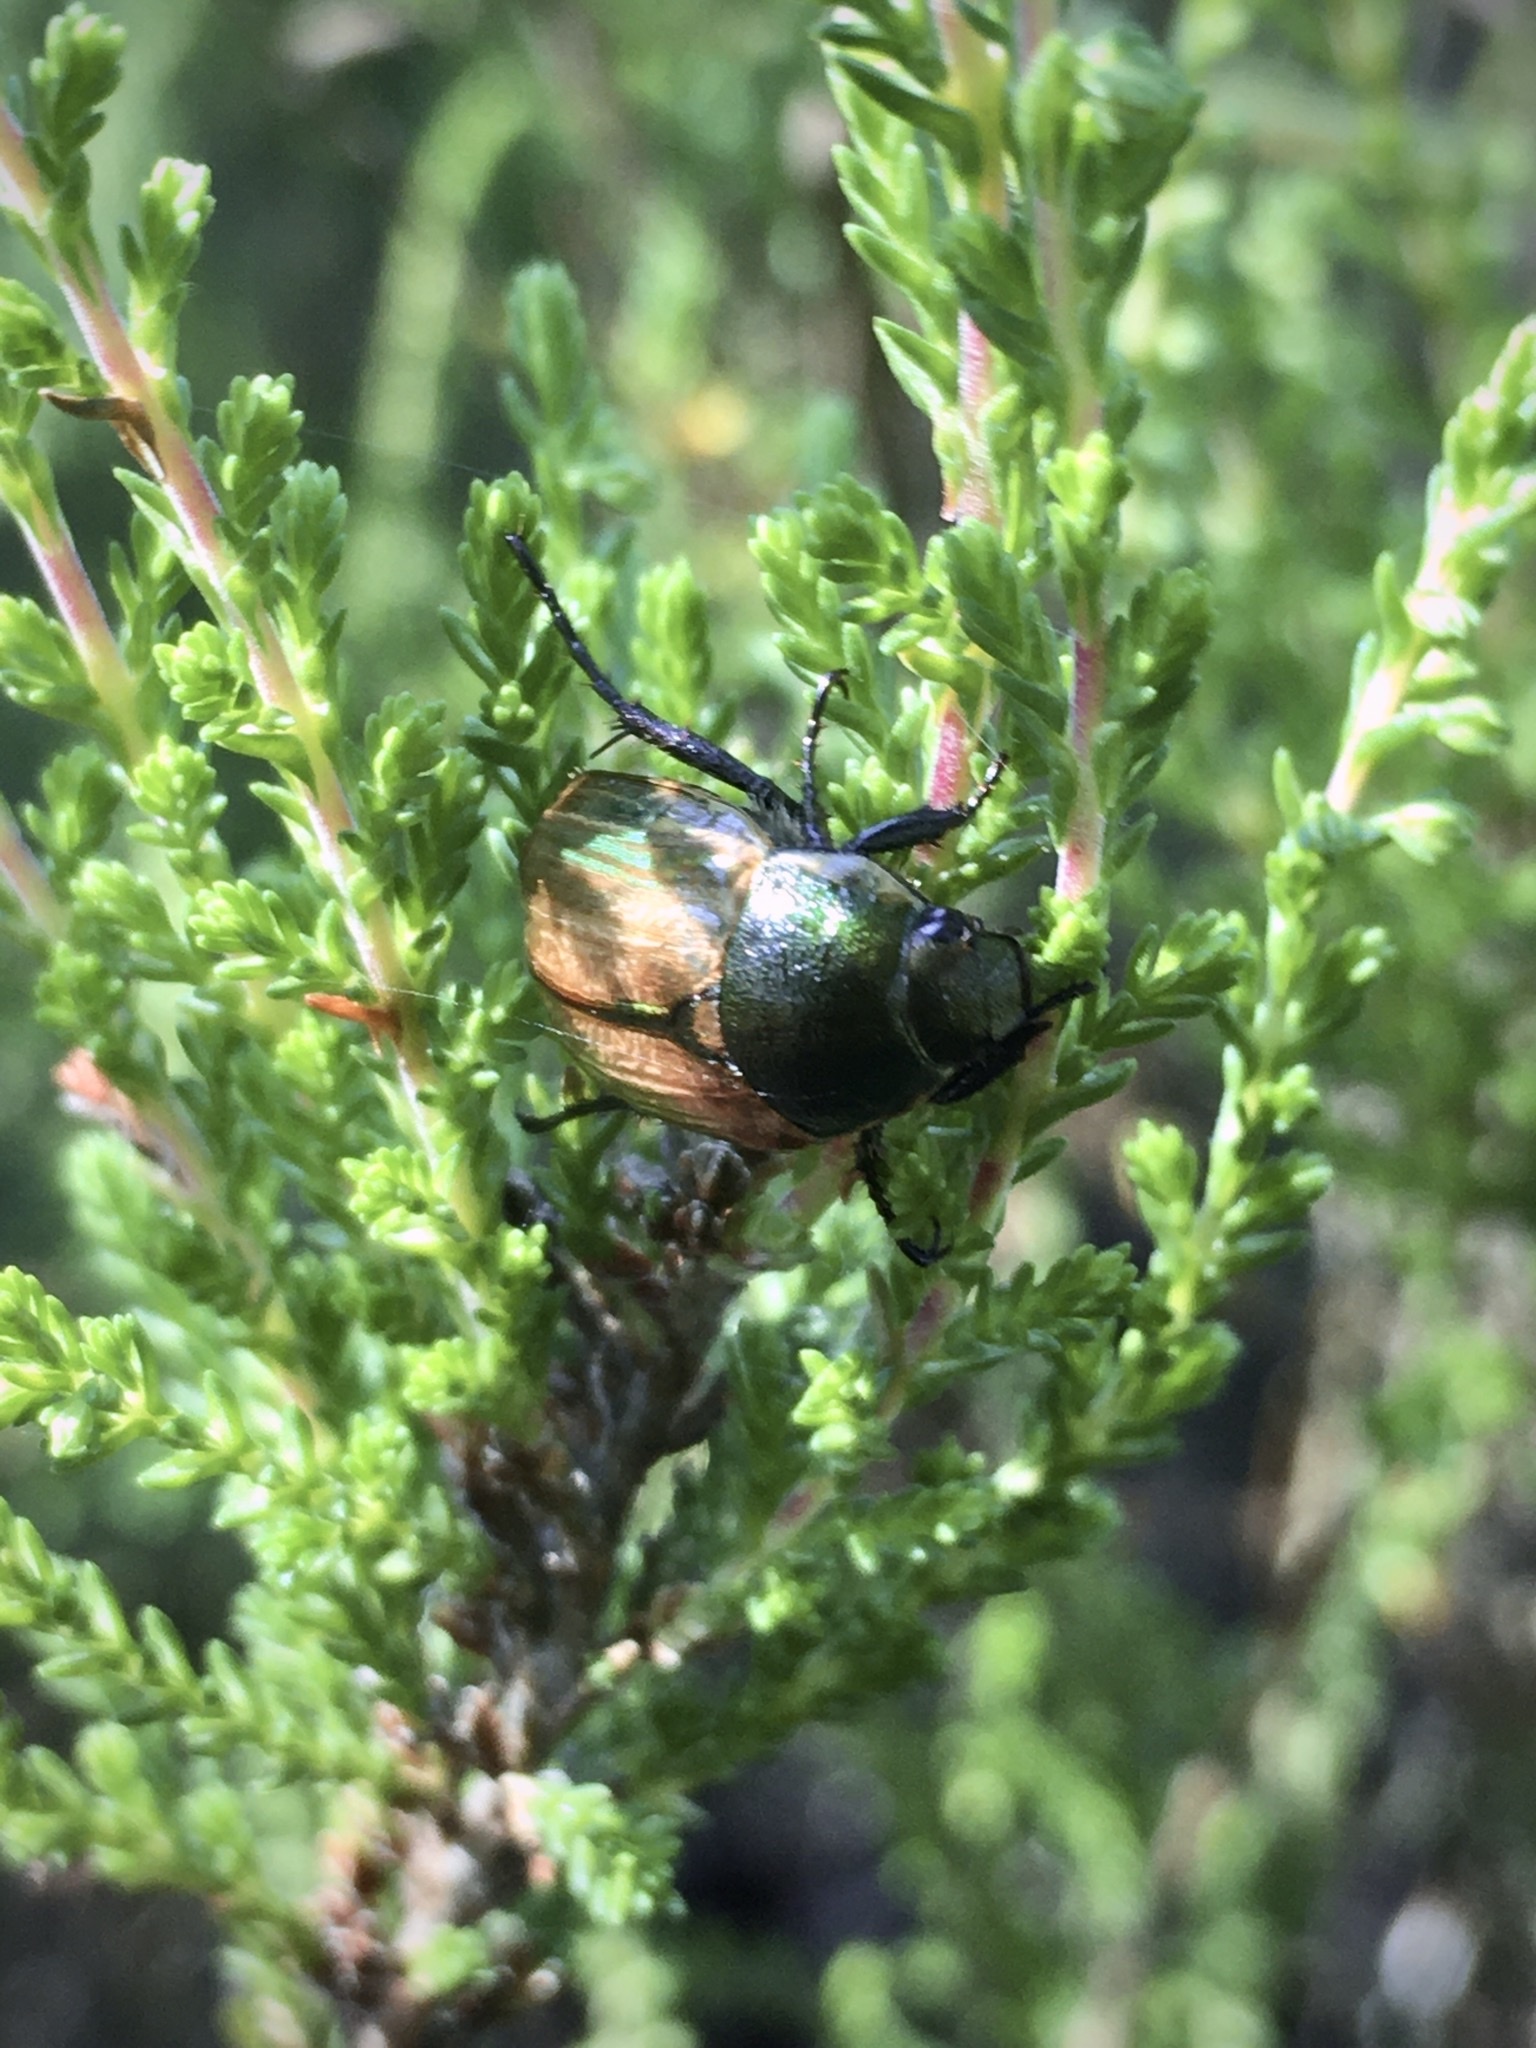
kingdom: Animalia
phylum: Arthropoda
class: Insecta
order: Coleoptera
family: Scarabaeidae
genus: Anomala
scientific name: Anomala dubia
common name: Dune chafer
